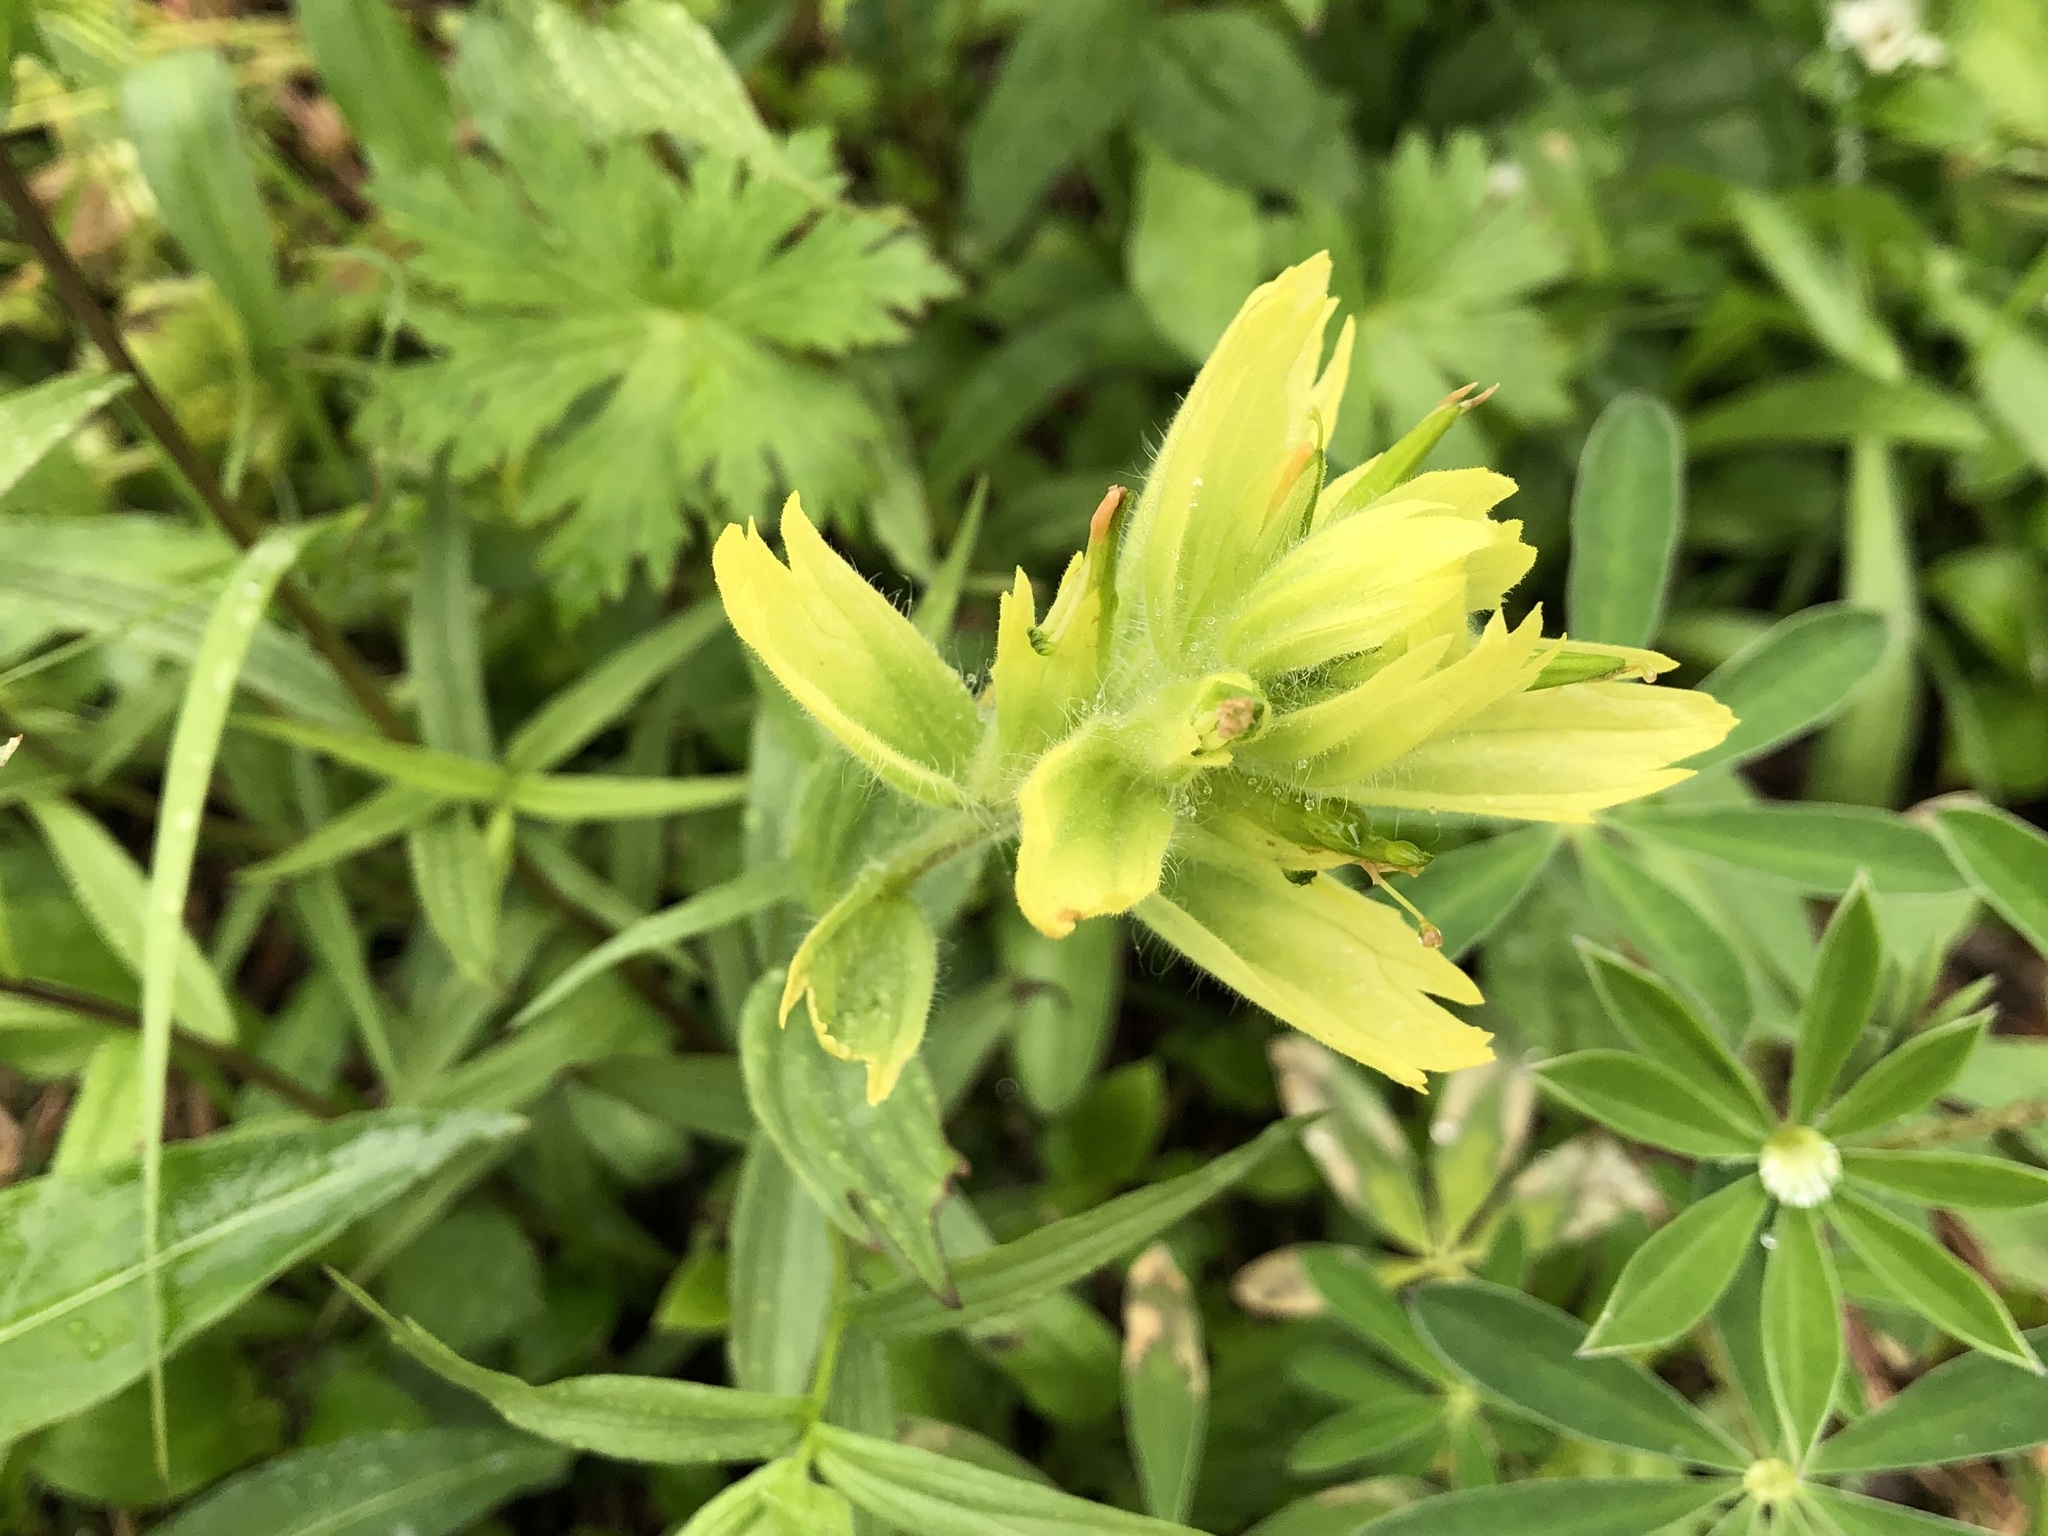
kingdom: Plantae
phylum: Tracheophyta
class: Magnoliopsida
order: Lamiales
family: Orobanchaceae
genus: Castilleja
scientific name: Castilleja unalaschcensis
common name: Unalaska paintbrush
